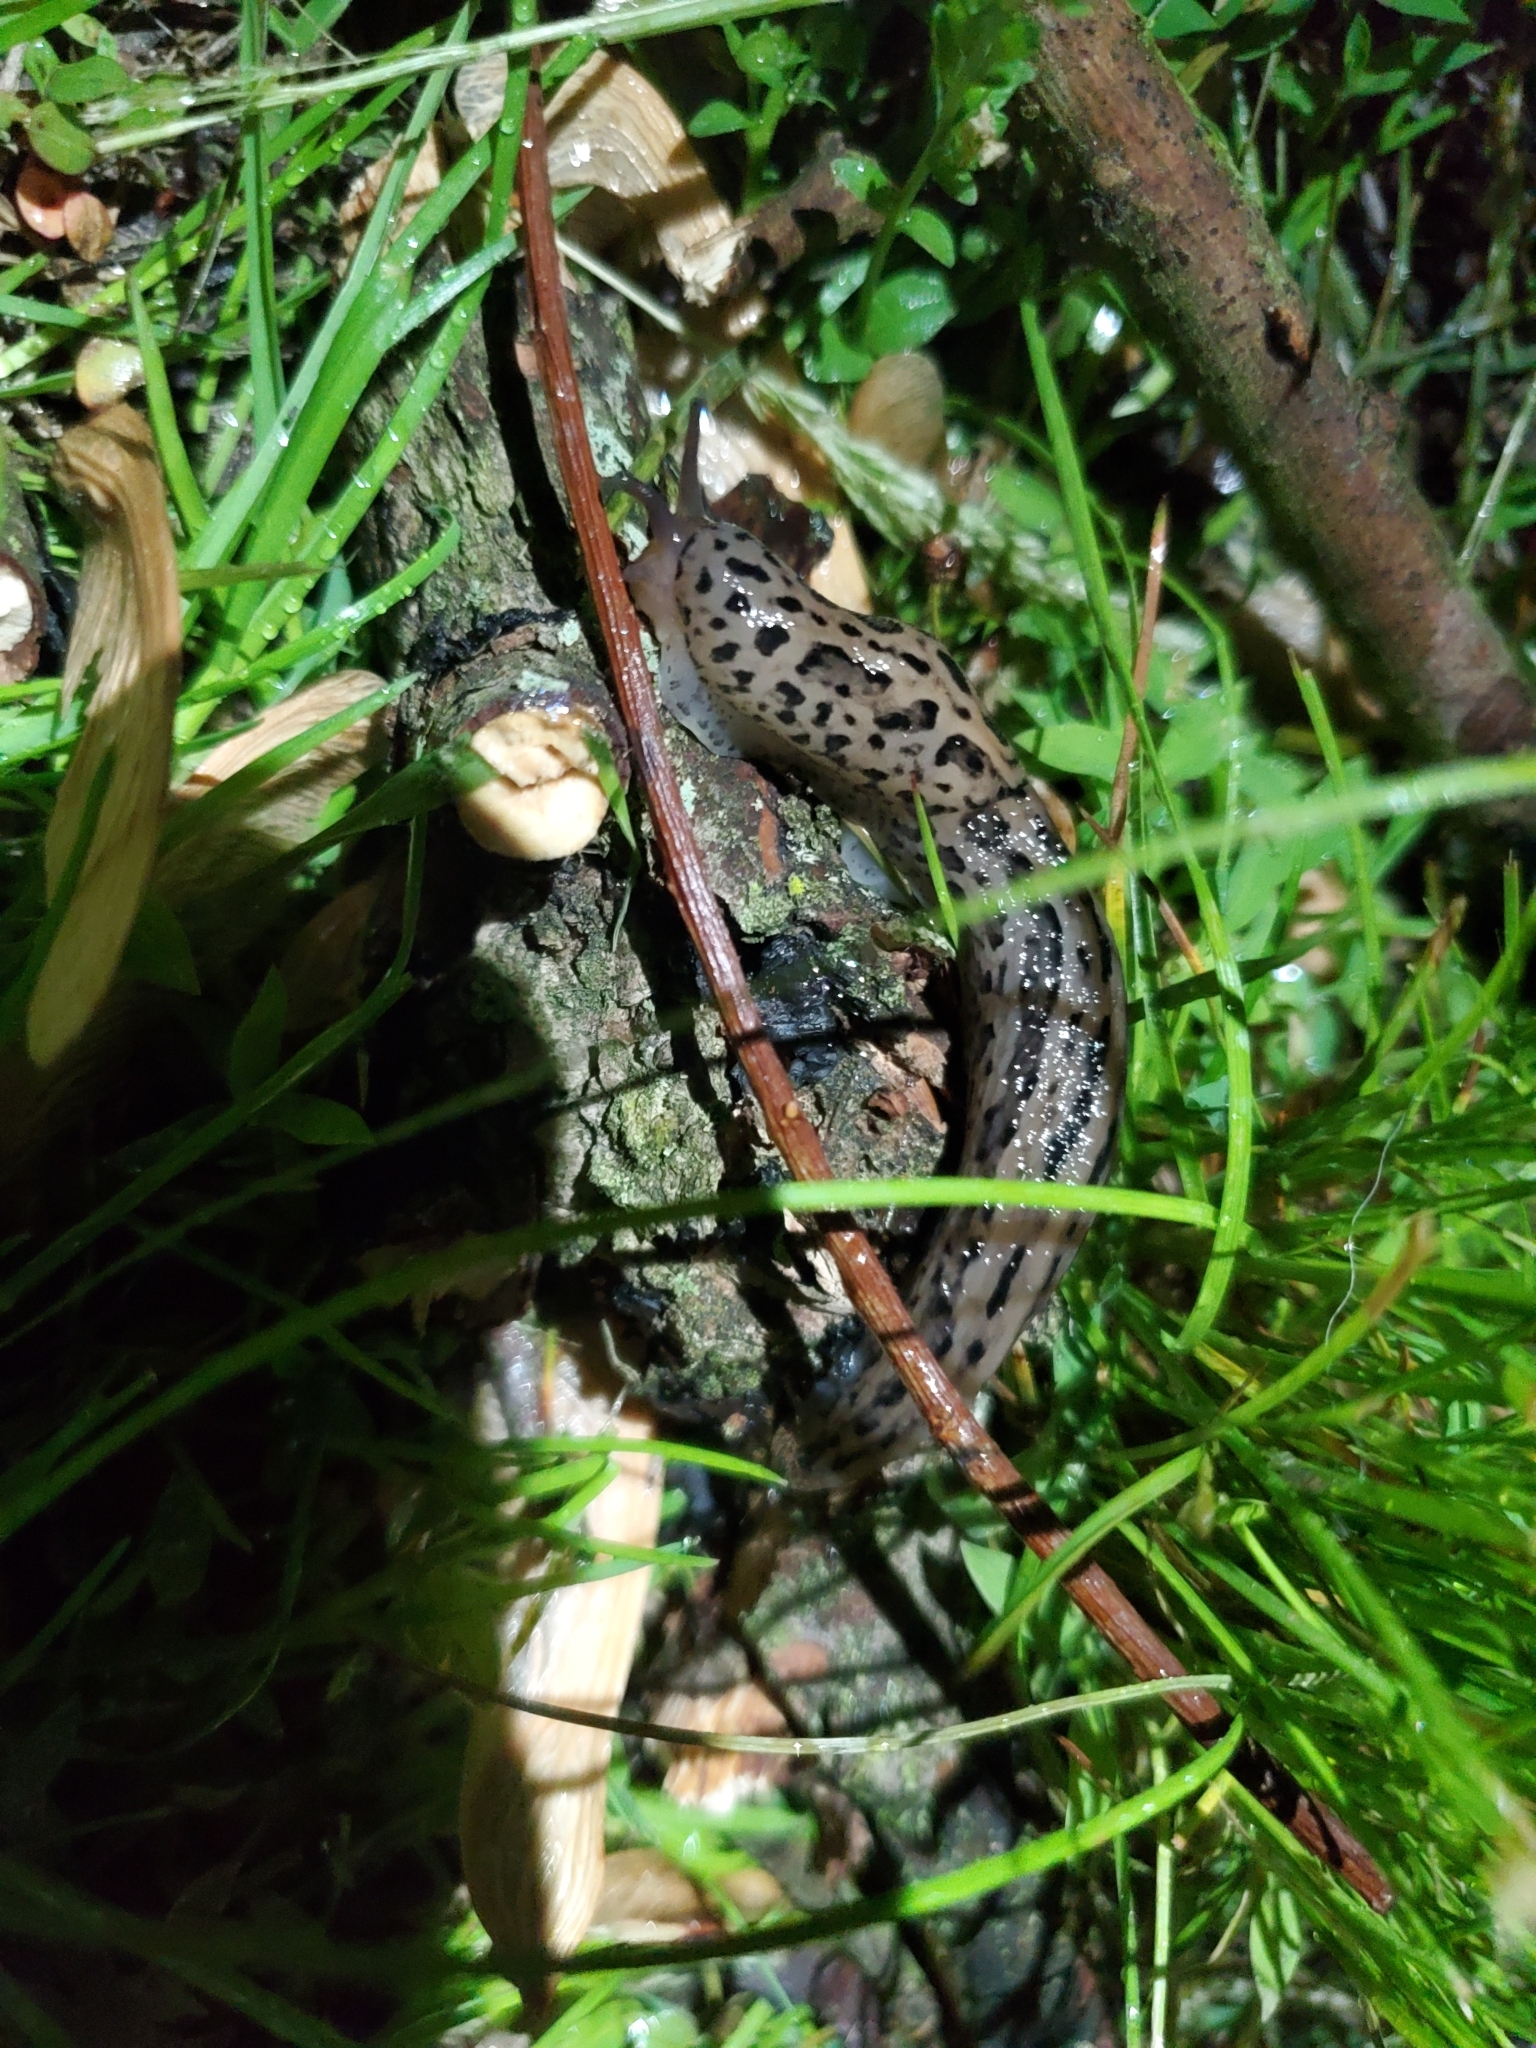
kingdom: Animalia
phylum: Mollusca
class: Gastropoda
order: Stylommatophora
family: Limacidae
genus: Limax
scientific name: Limax maximus
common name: Great grey slug
